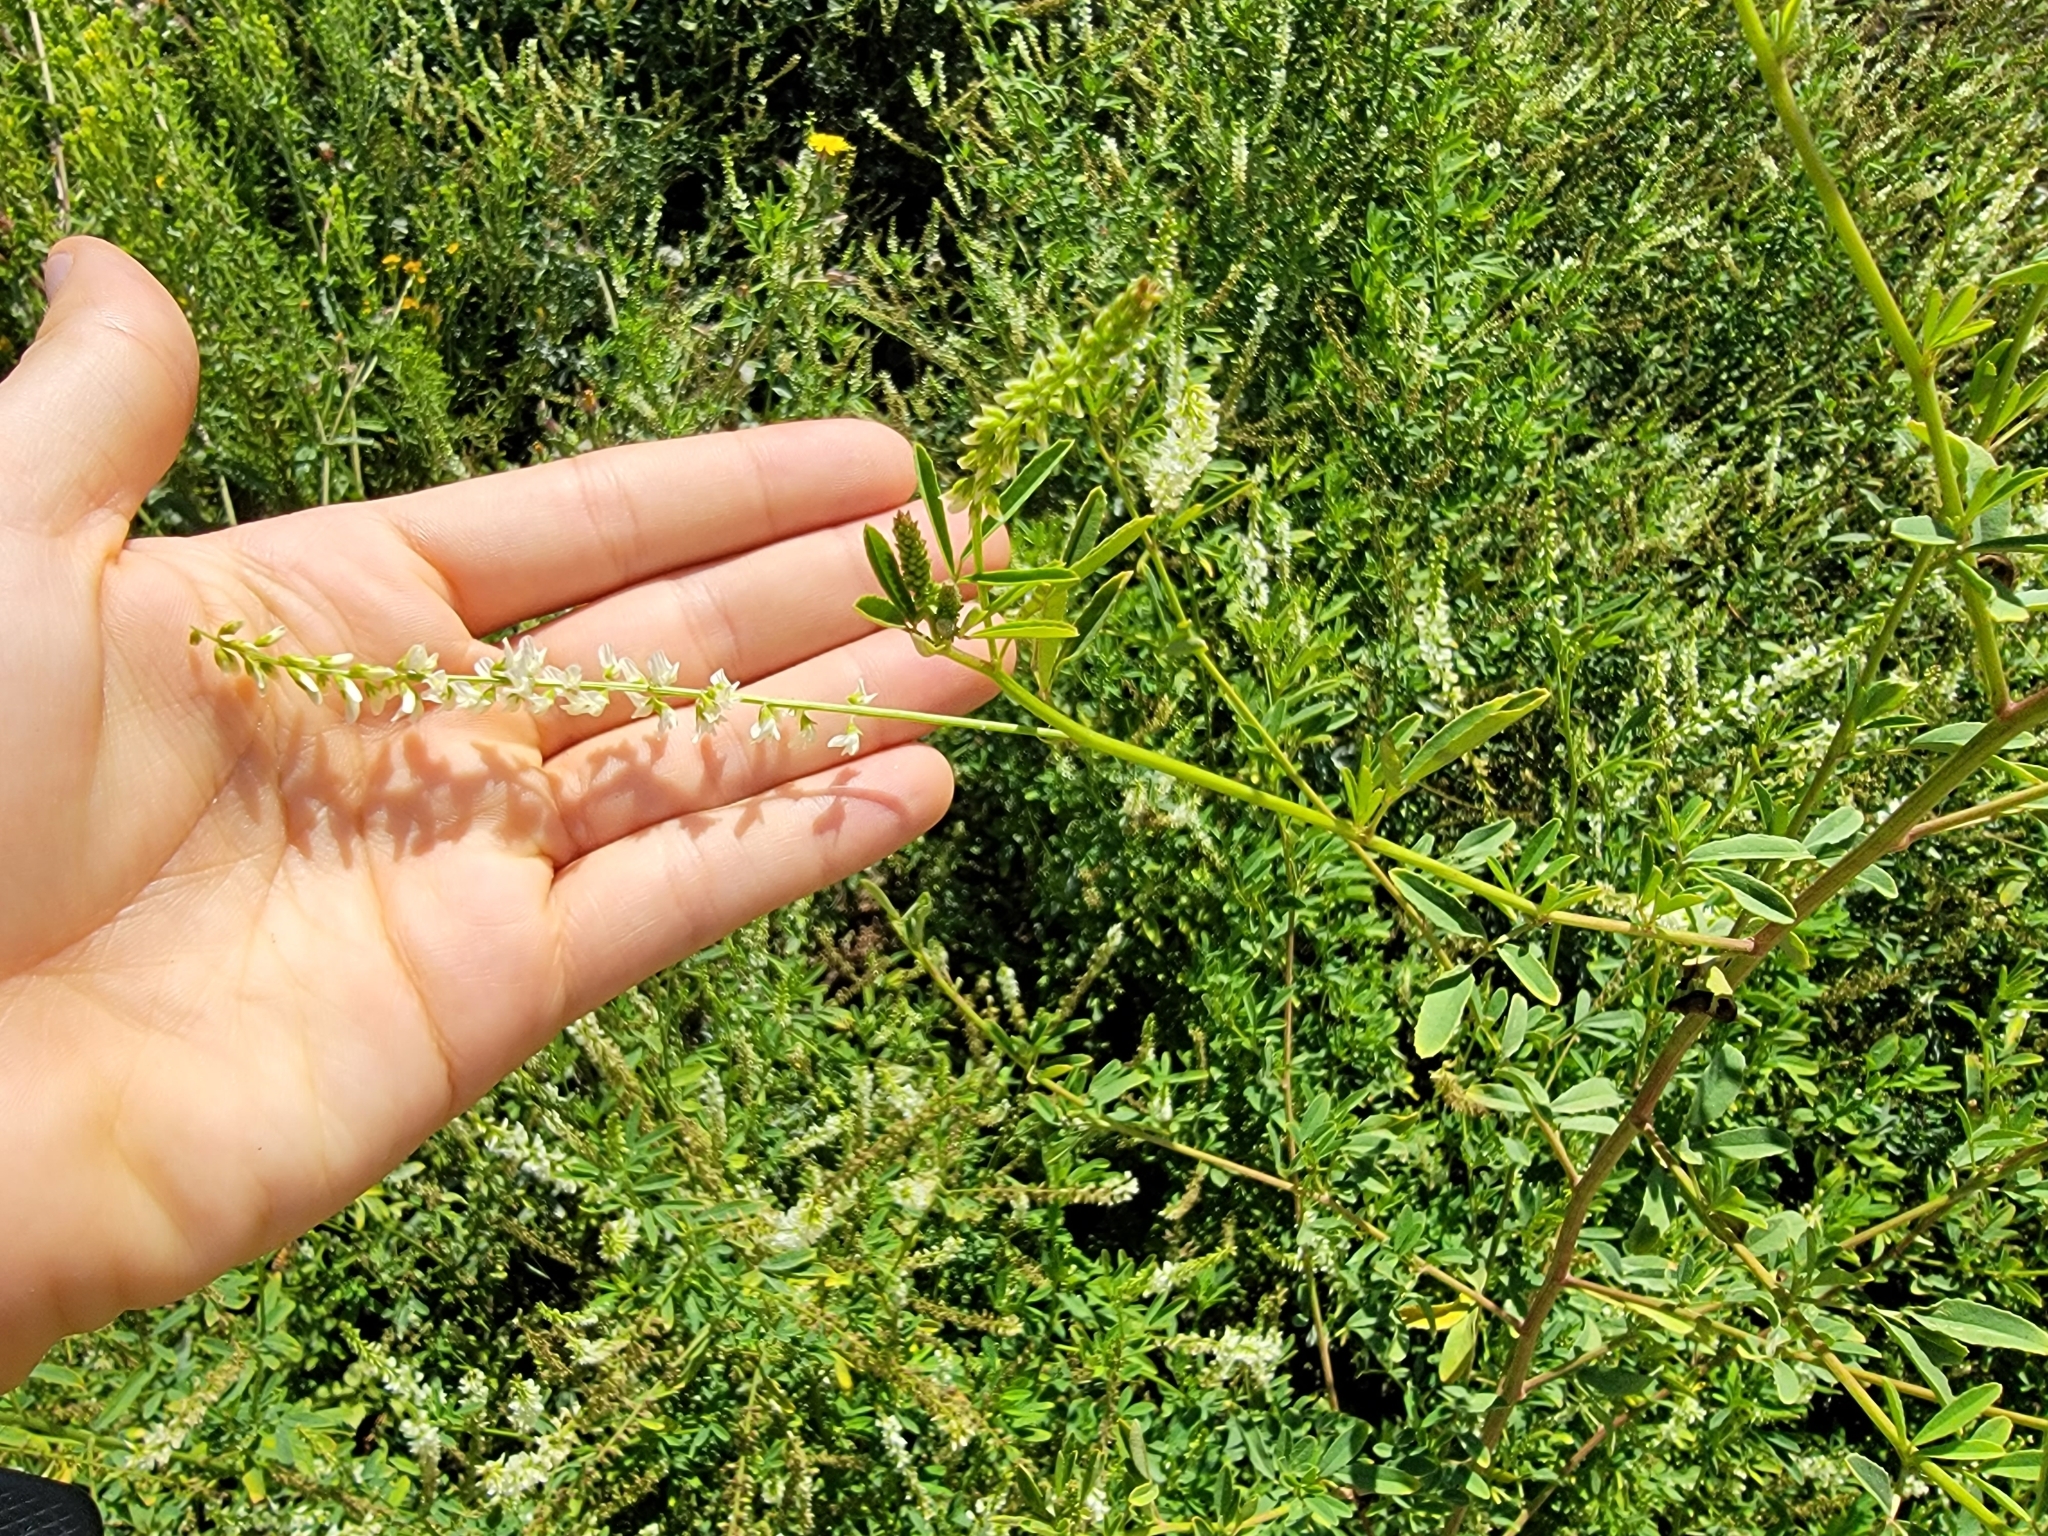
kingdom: Plantae
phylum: Tracheophyta
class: Magnoliopsida
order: Fabales
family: Fabaceae
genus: Melilotus
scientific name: Melilotus albus
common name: White melilot
